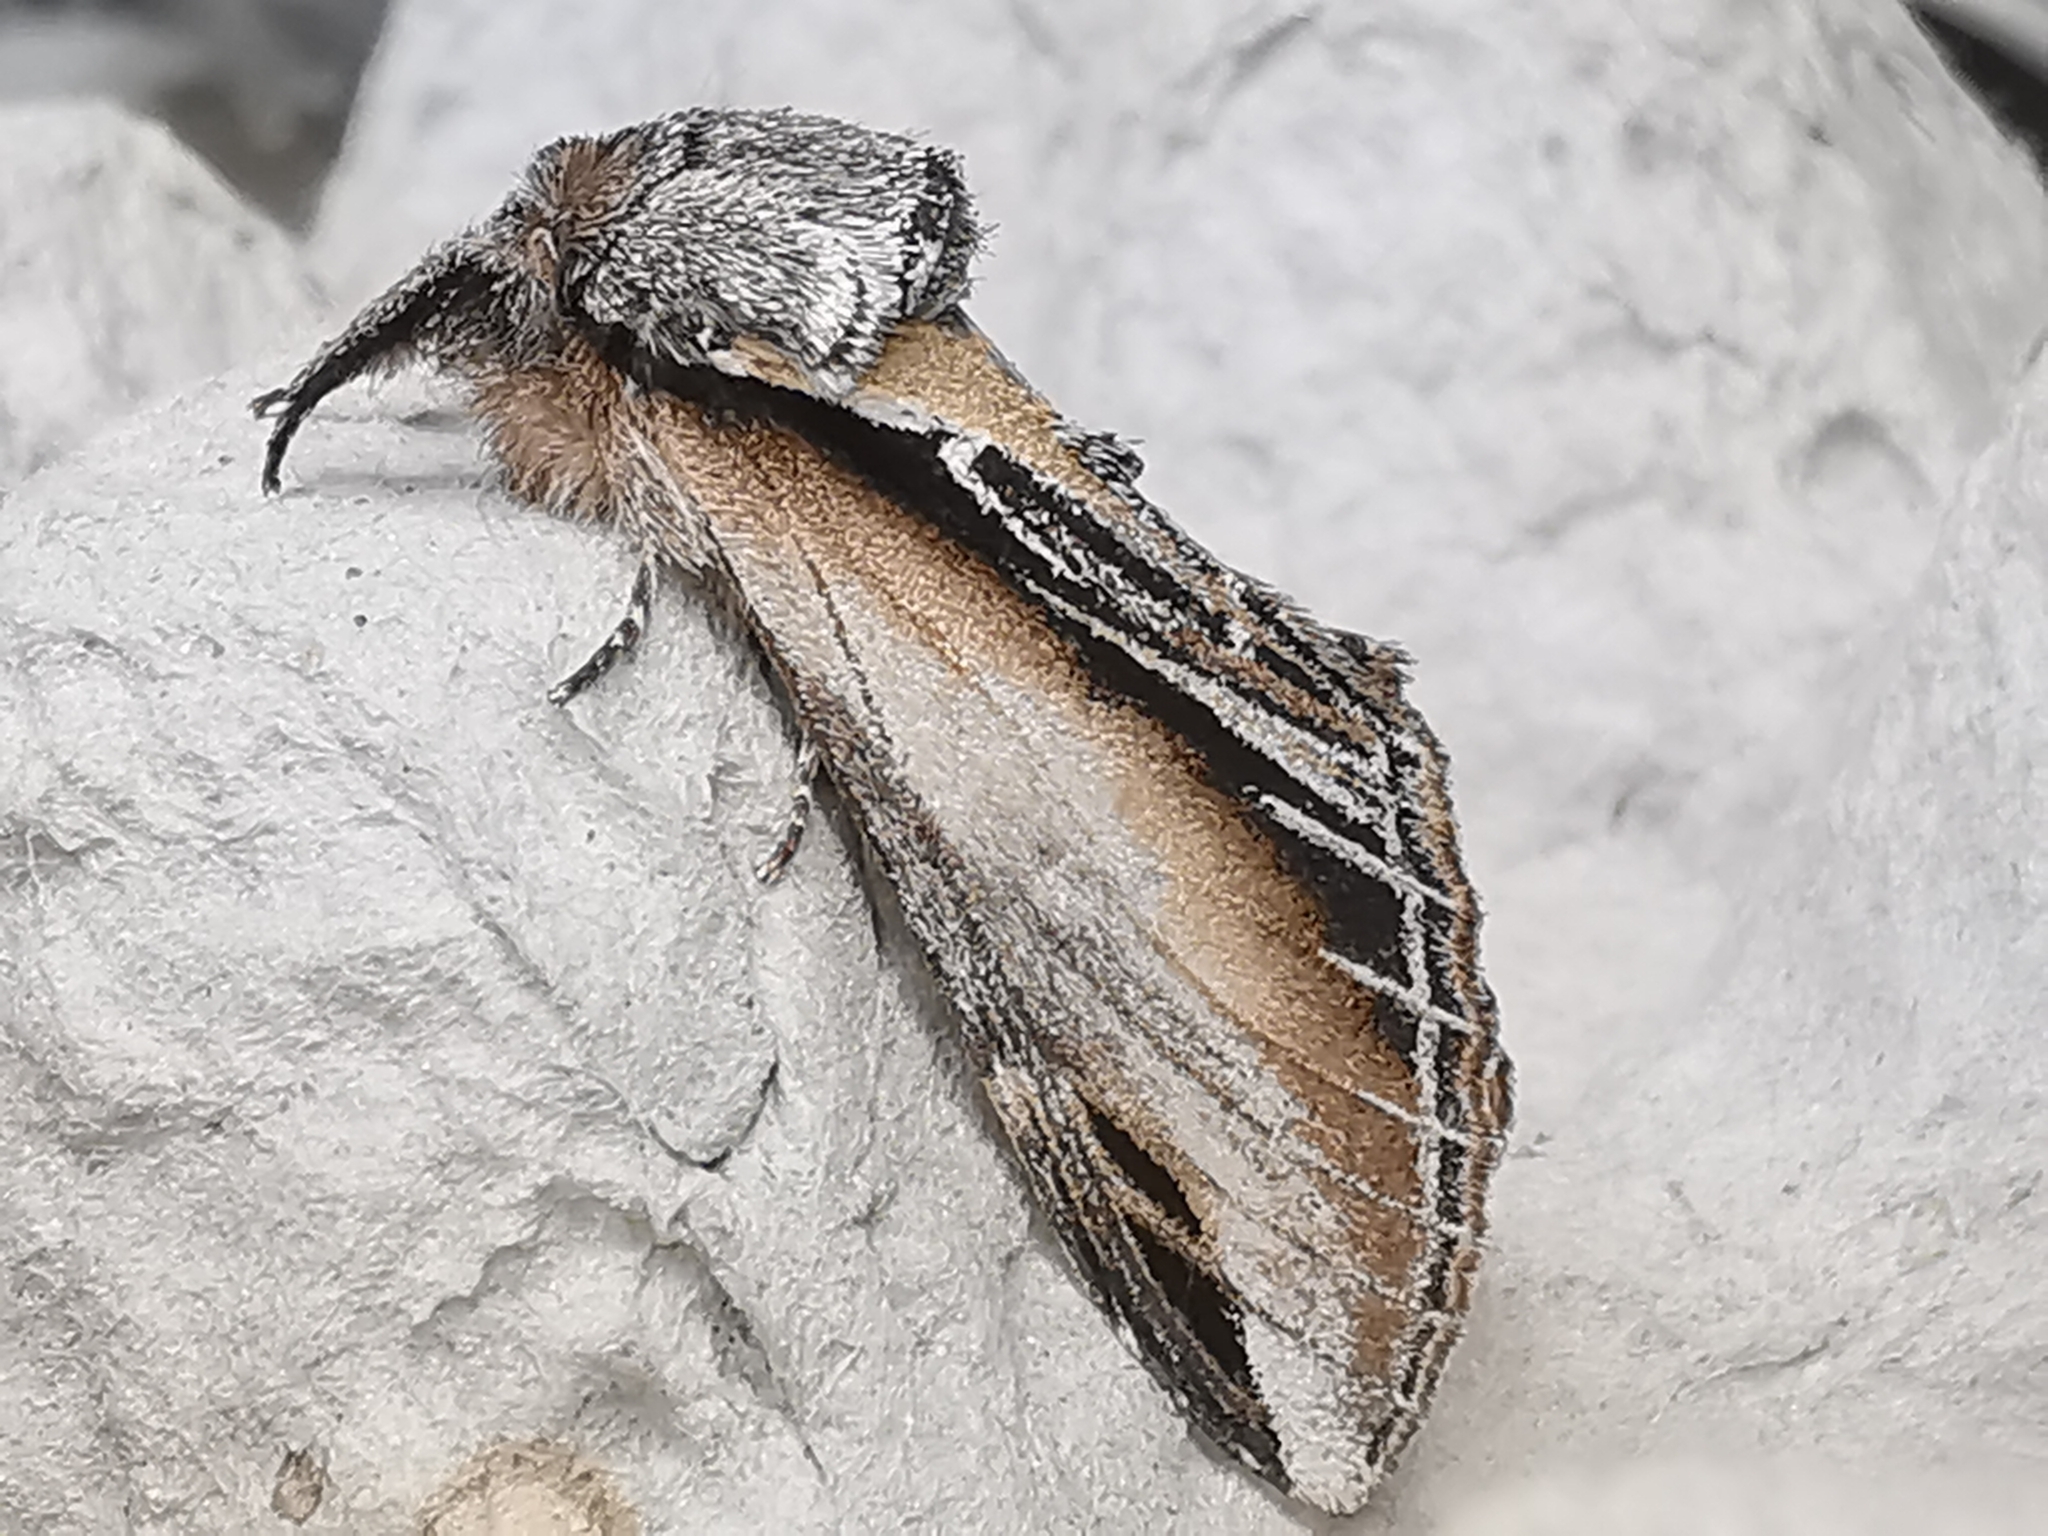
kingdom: Animalia
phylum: Arthropoda
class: Insecta
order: Lepidoptera
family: Notodontidae
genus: Pheosia
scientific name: Pheosia tremula
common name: Swallow prominent
